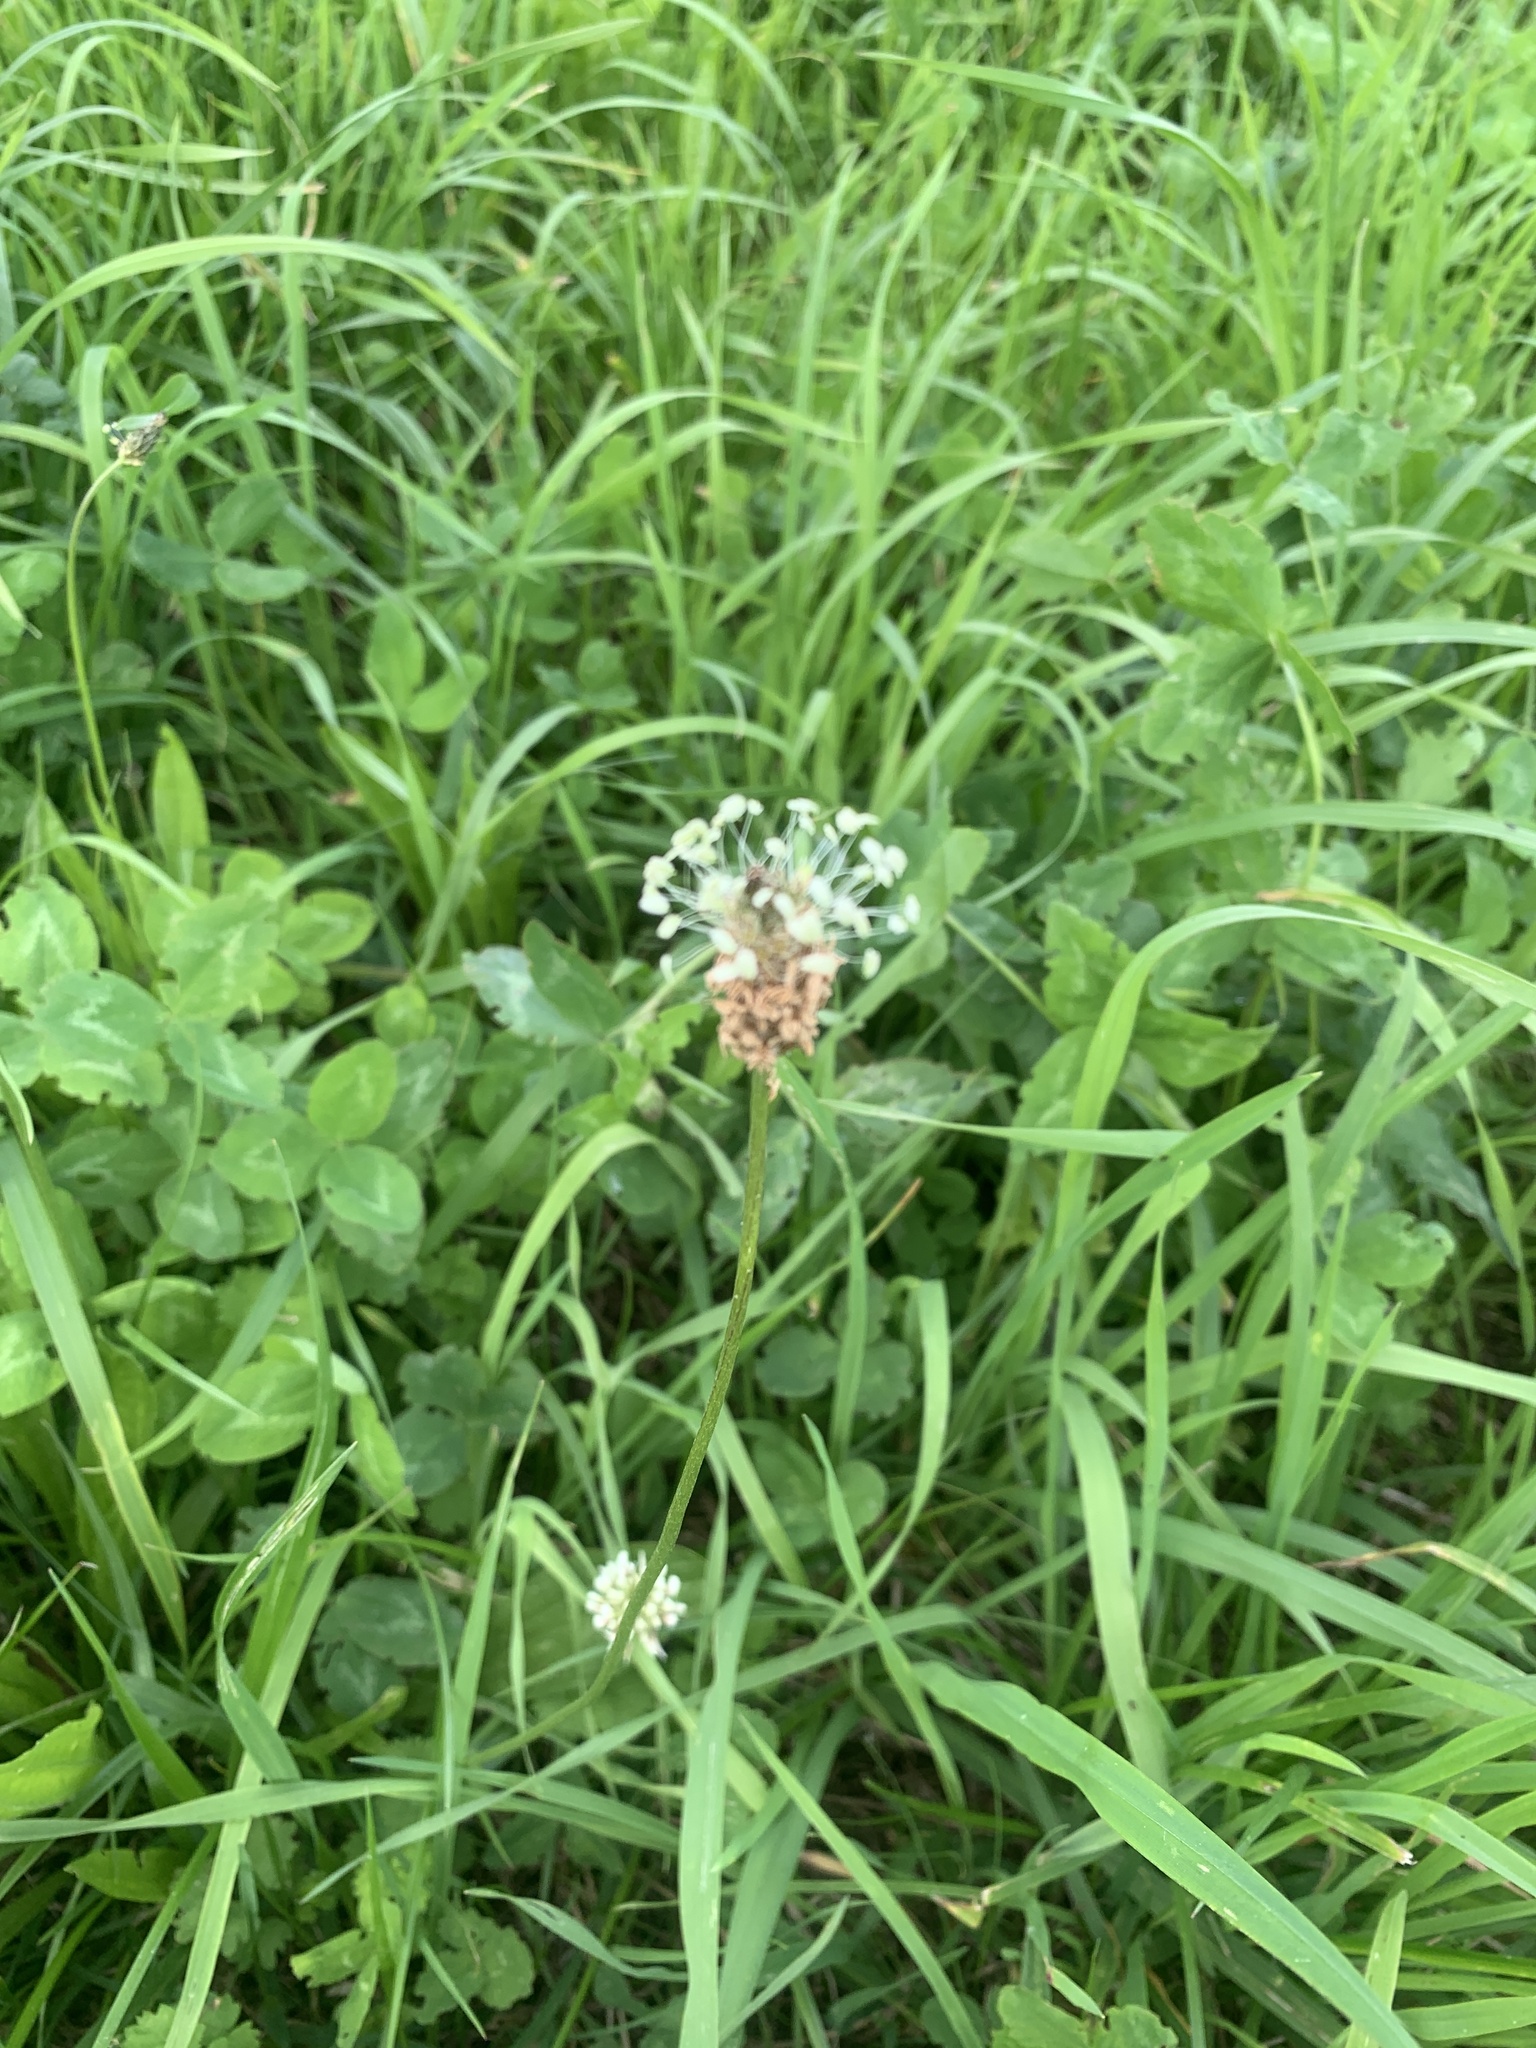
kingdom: Plantae
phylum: Tracheophyta
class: Magnoliopsida
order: Lamiales
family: Plantaginaceae
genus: Plantago
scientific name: Plantago lanceolata
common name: Ribwort plantain
